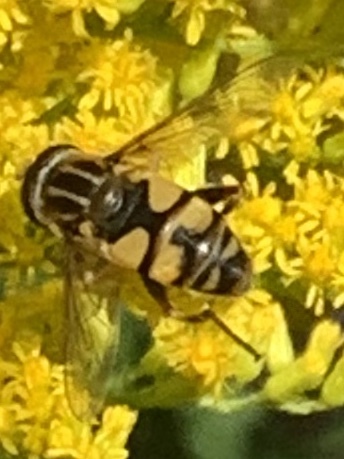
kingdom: Animalia
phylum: Arthropoda
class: Insecta
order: Diptera
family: Syrphidae
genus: Helophilus
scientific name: Helophilus fasciatus
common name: Narrow-headed marsh fly
